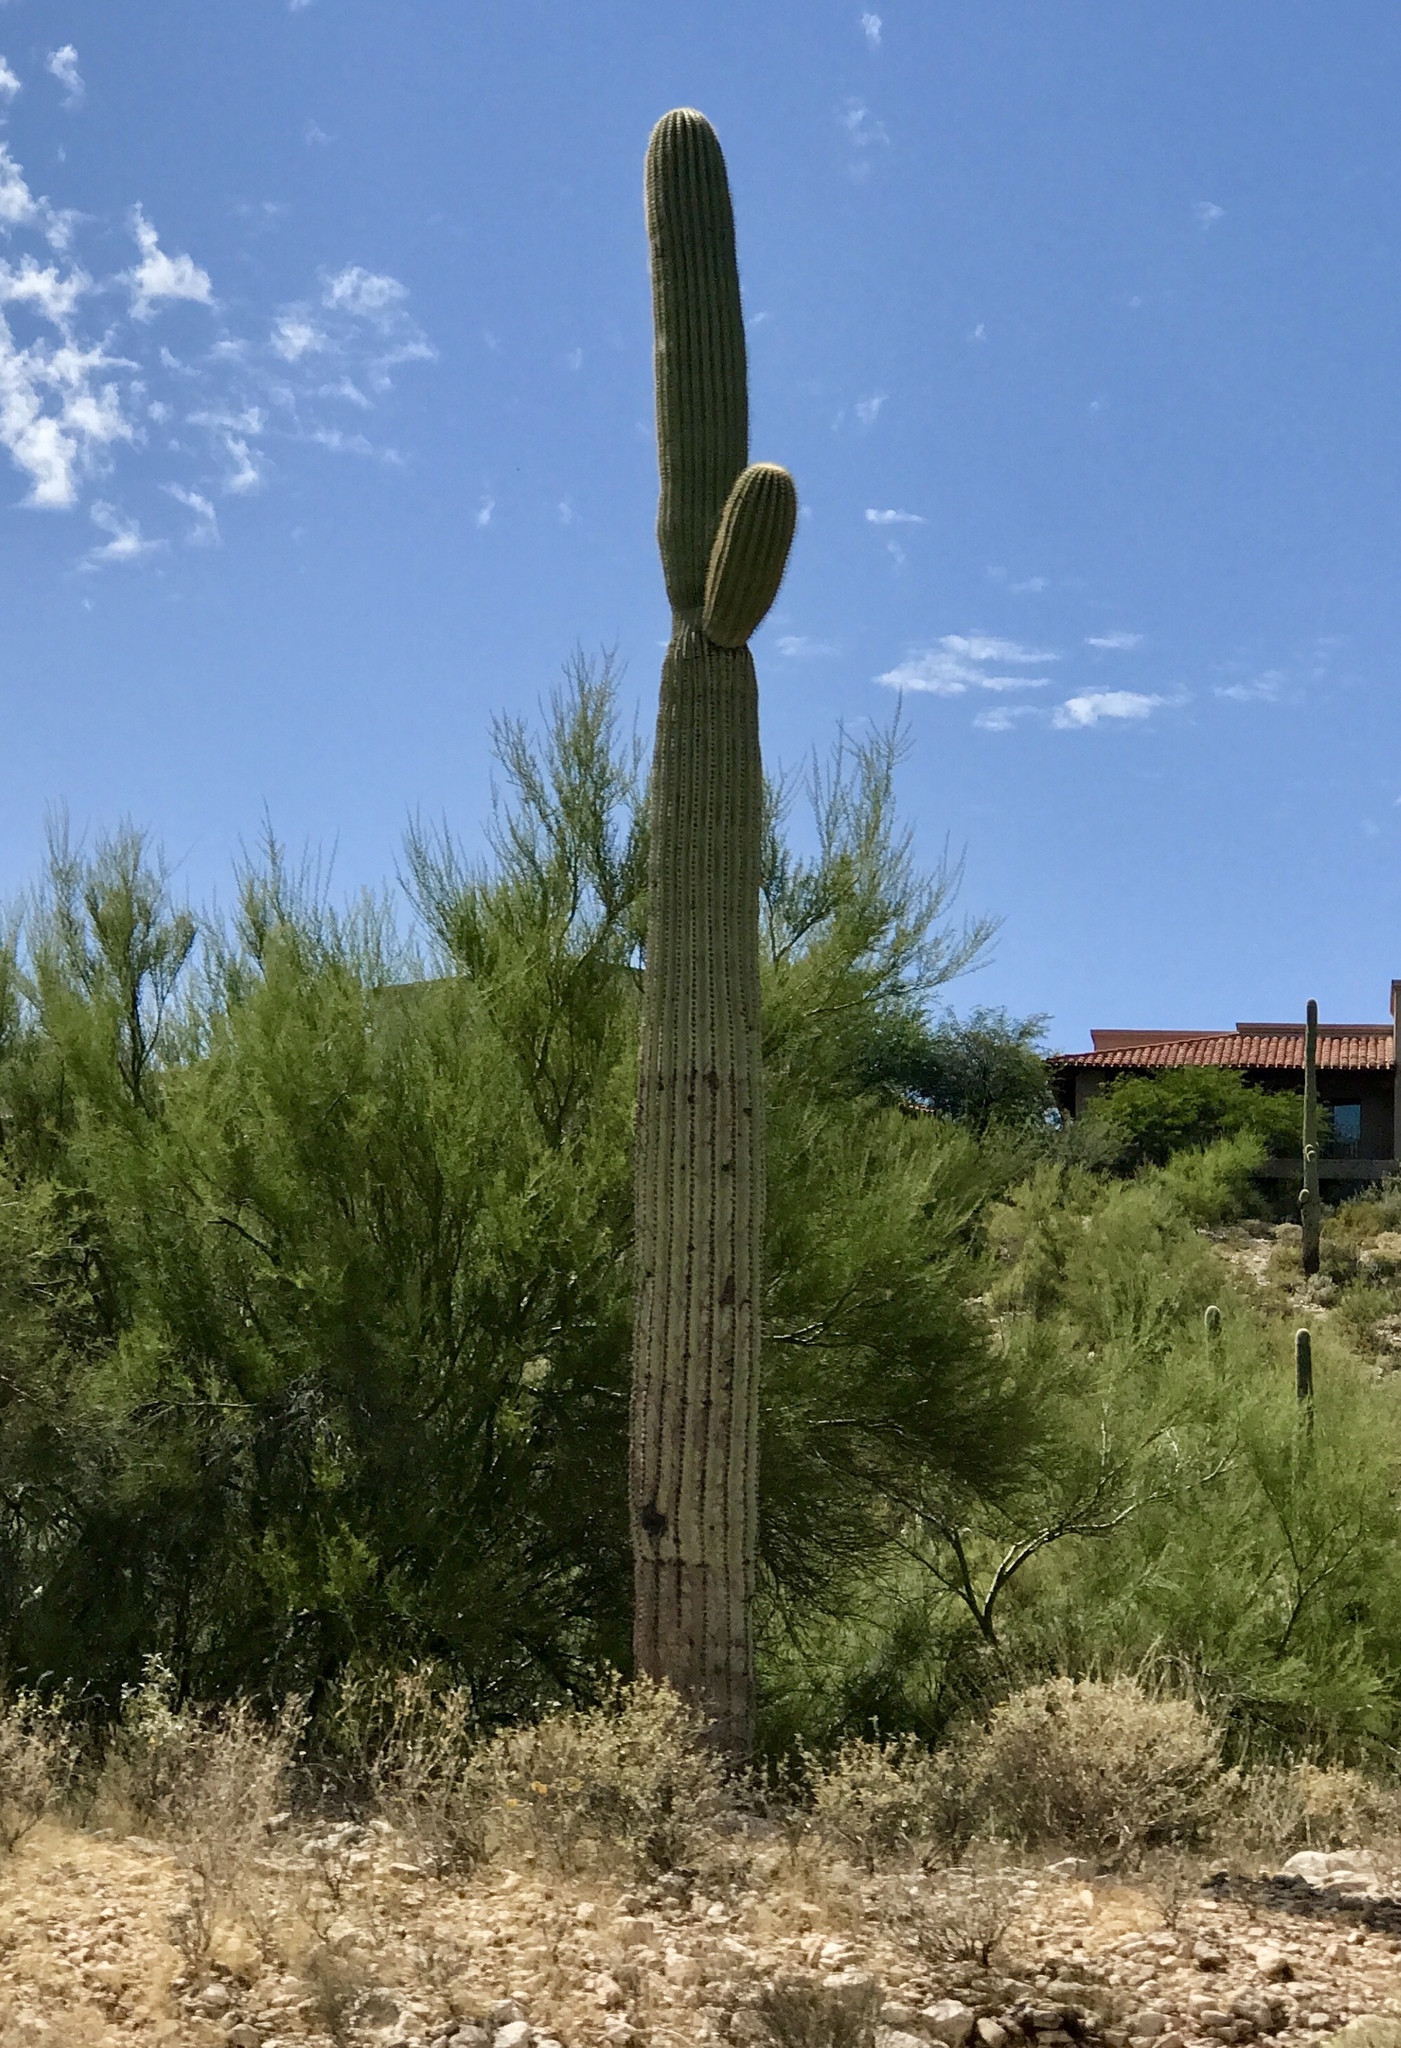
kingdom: Plantae
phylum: Tracheophyta
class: Magnoliopsida
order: Caryophyllales
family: Cactaceae
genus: Carnegiea
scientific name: Carnegiea gigantea
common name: Saguaro
